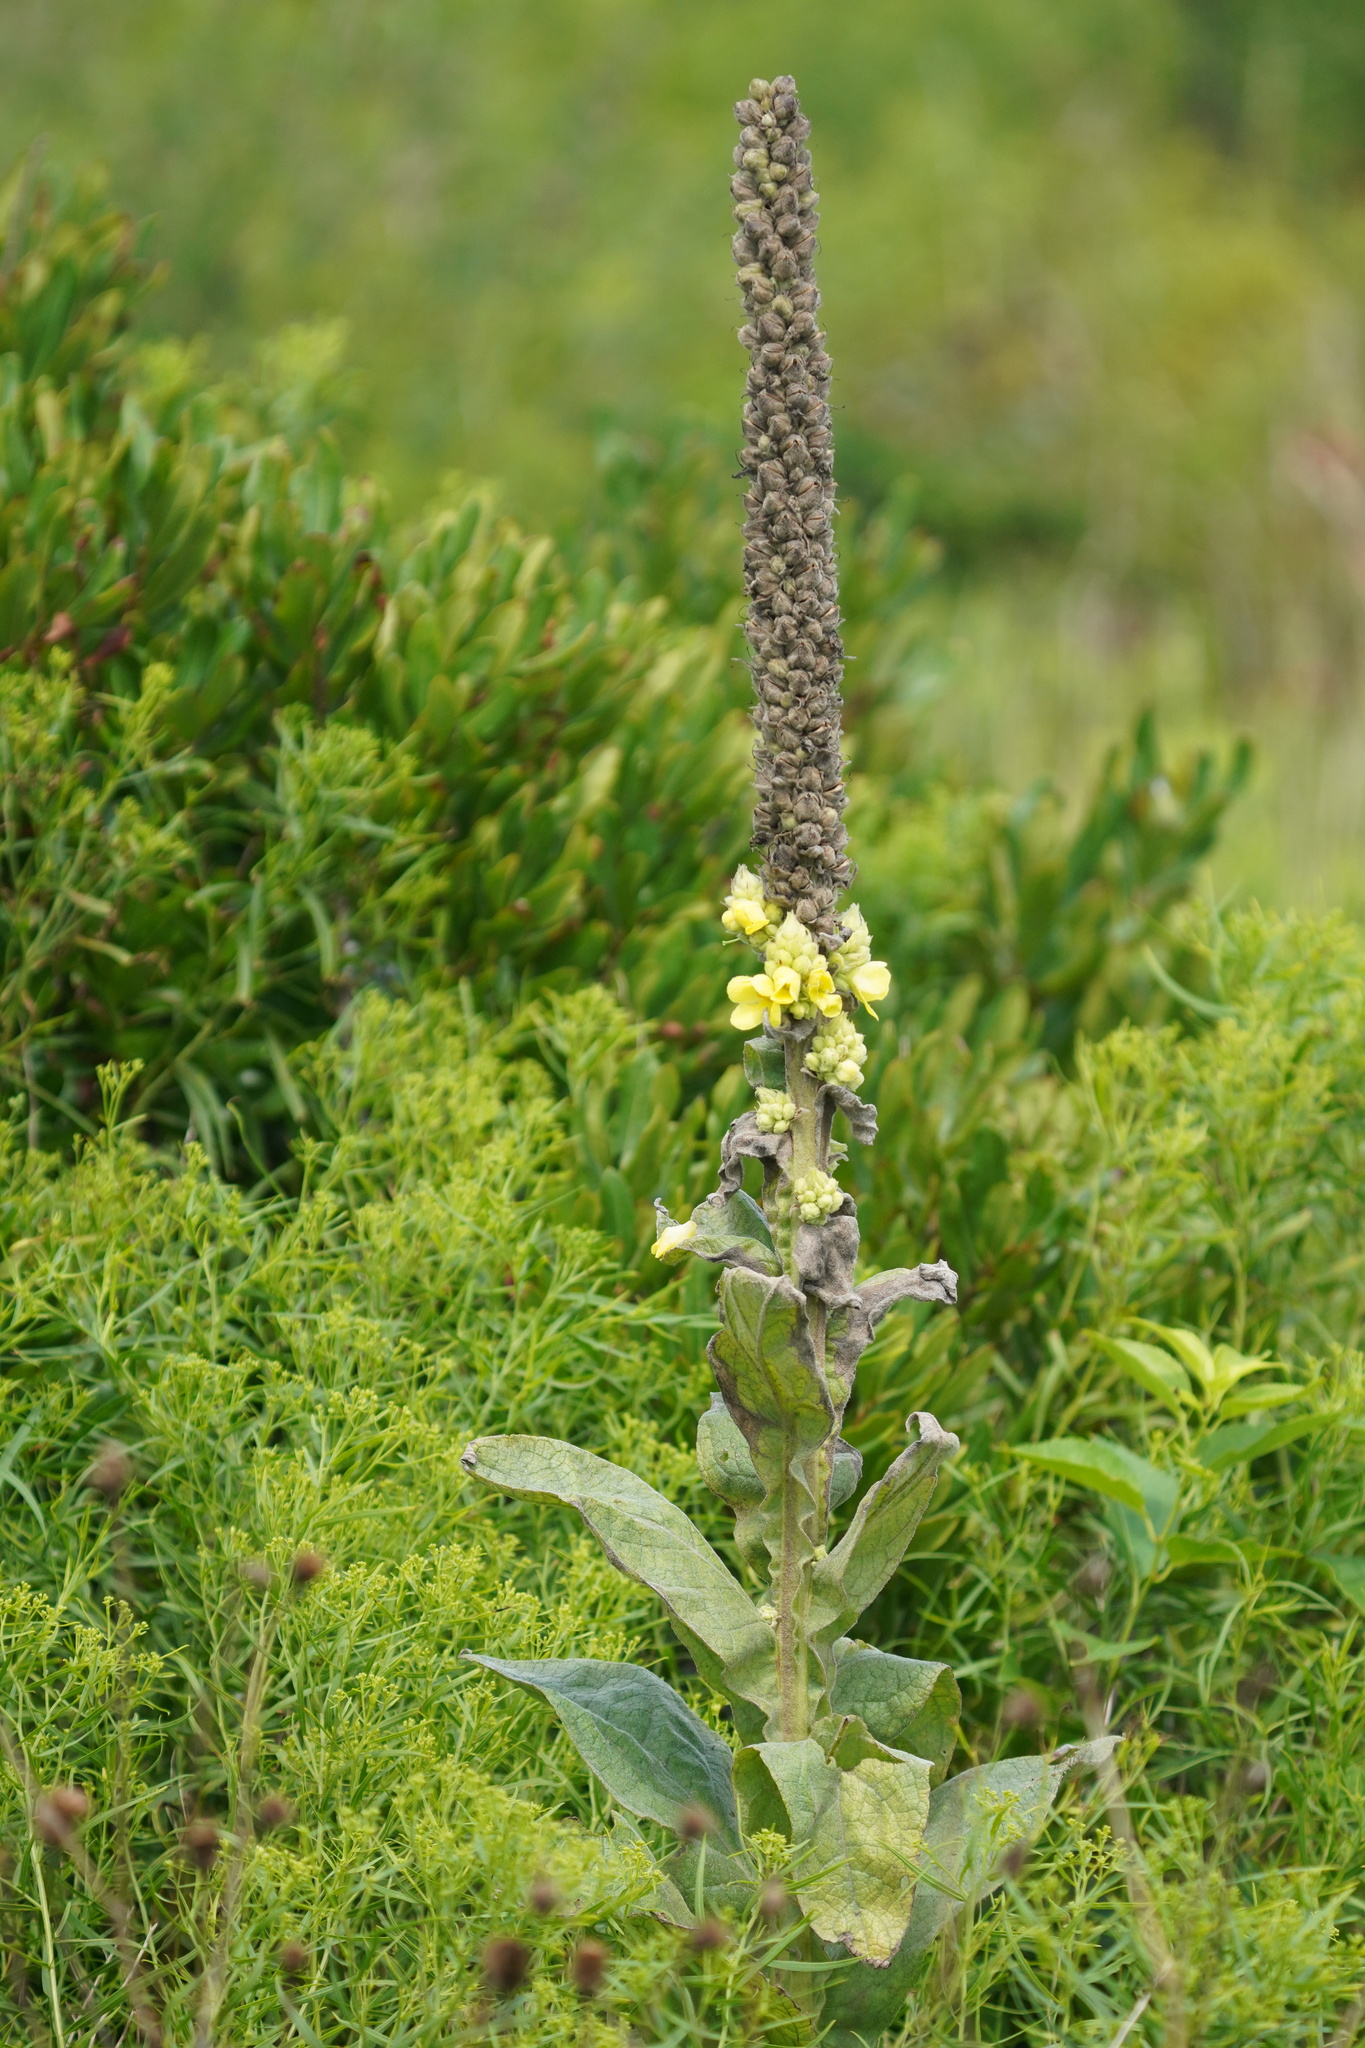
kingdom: Plantae
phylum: Tracheophyta
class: Magnoliopsida
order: Lamiales
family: Scrophulariaceae
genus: Verbascum
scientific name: Verbascum thapsus
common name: Common mullein
